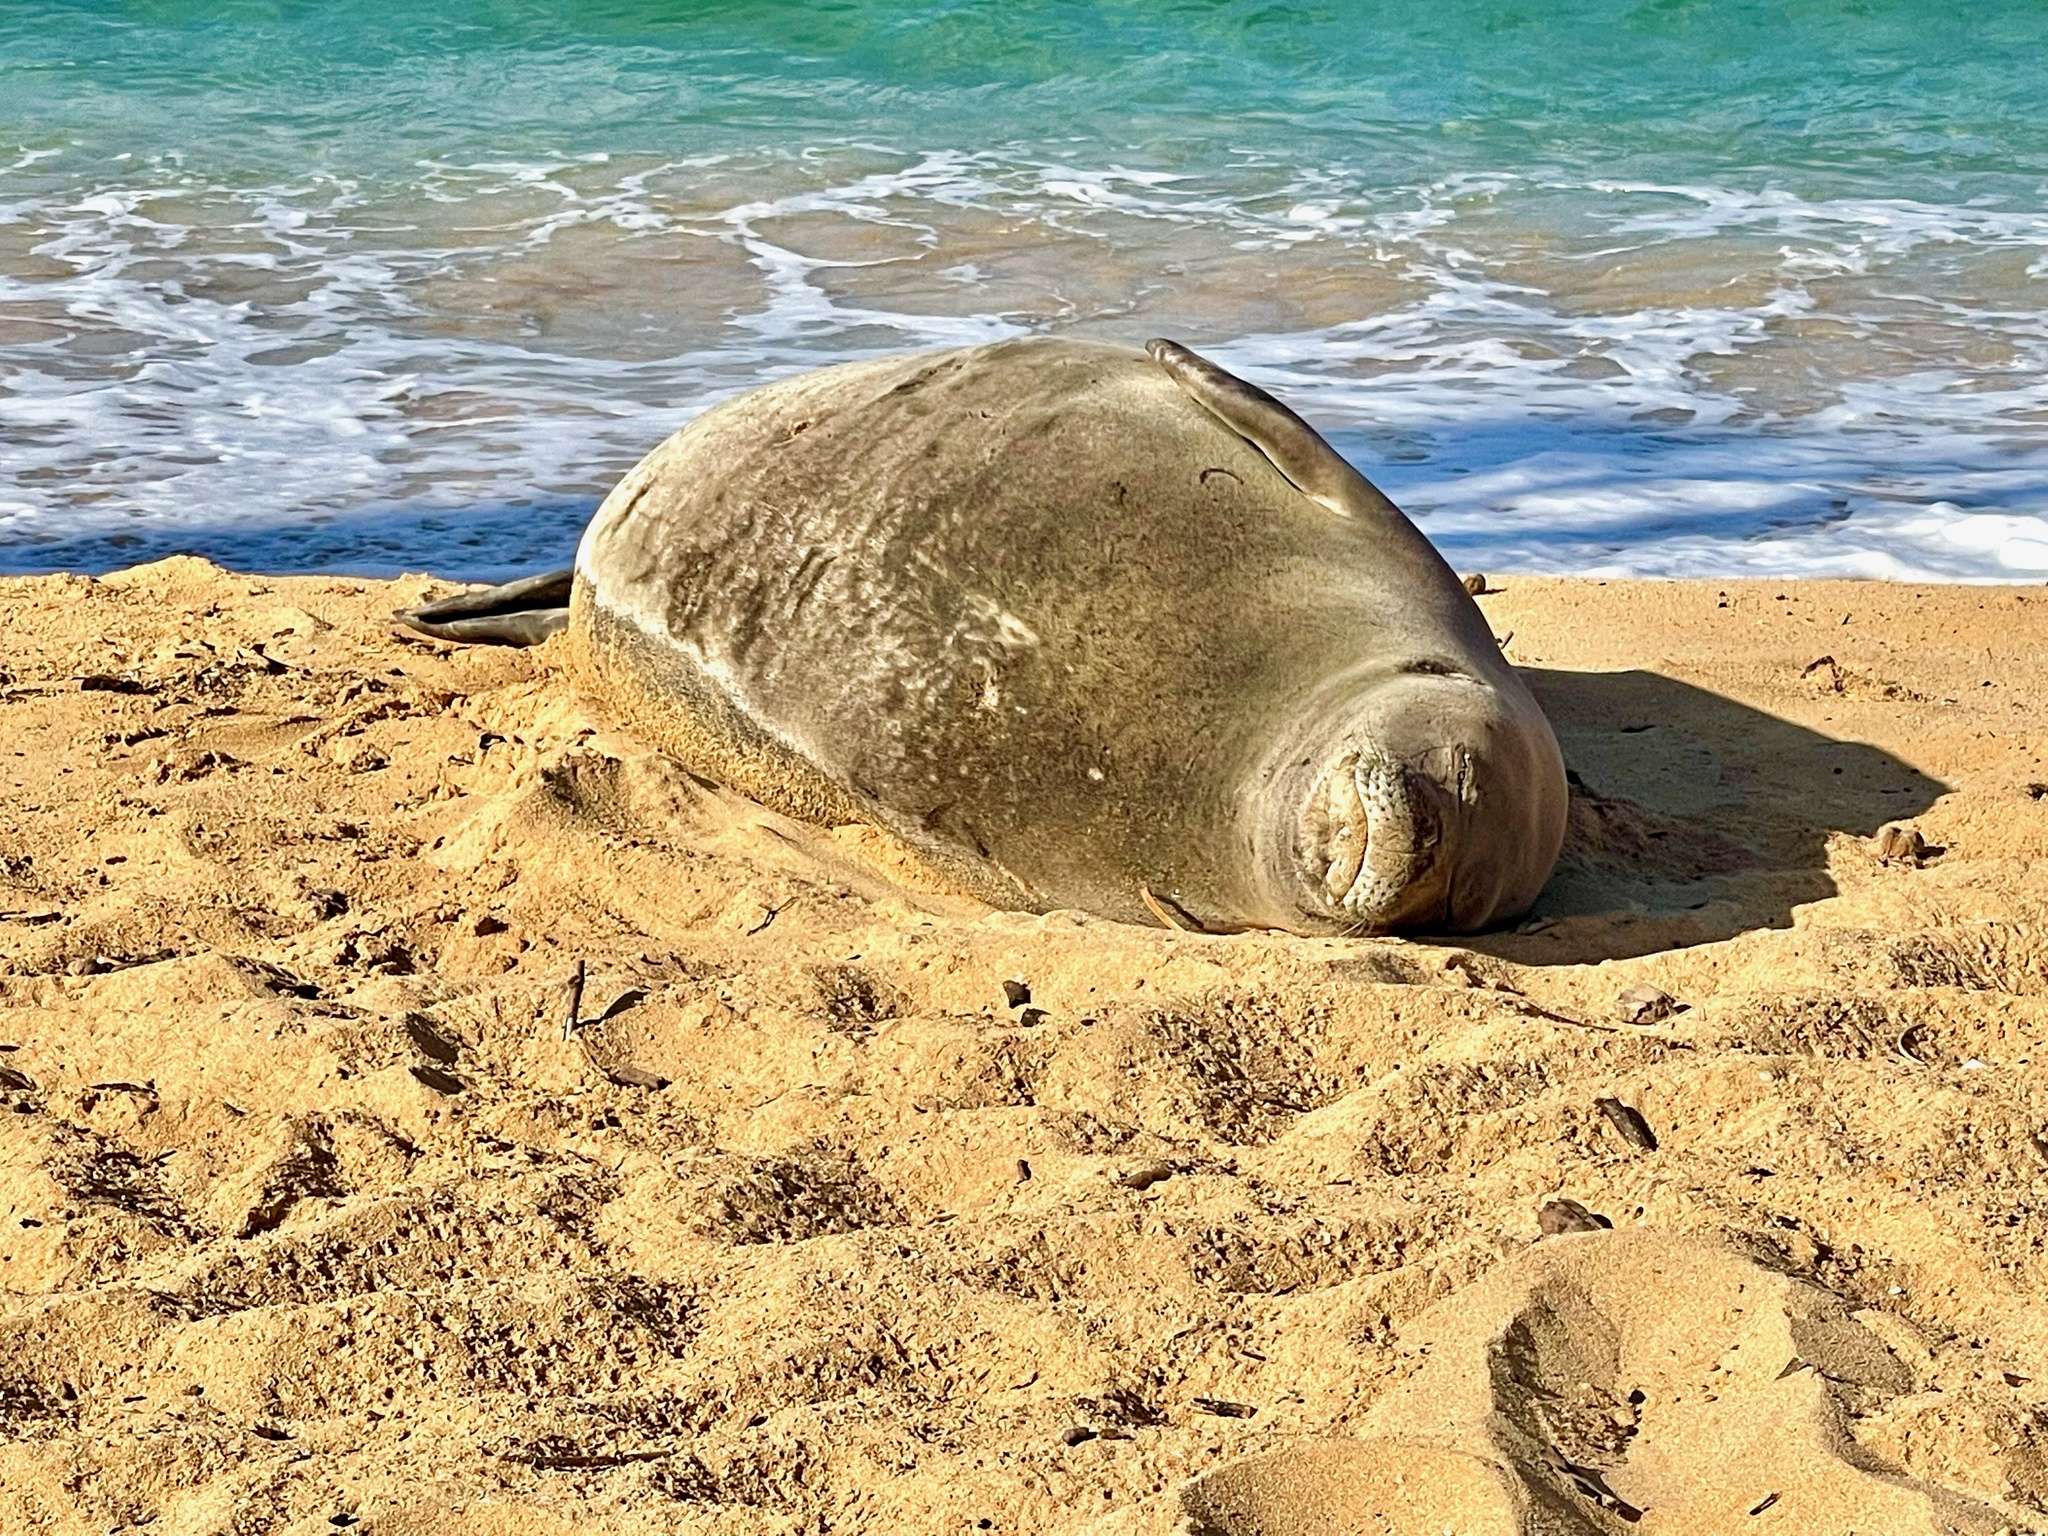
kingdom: Animalia
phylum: Chordata
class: Mammalia
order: Carnivora
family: Phocidae
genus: Neomonachus
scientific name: Neomonachus schauinslandi
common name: Hawaiian monk seal
